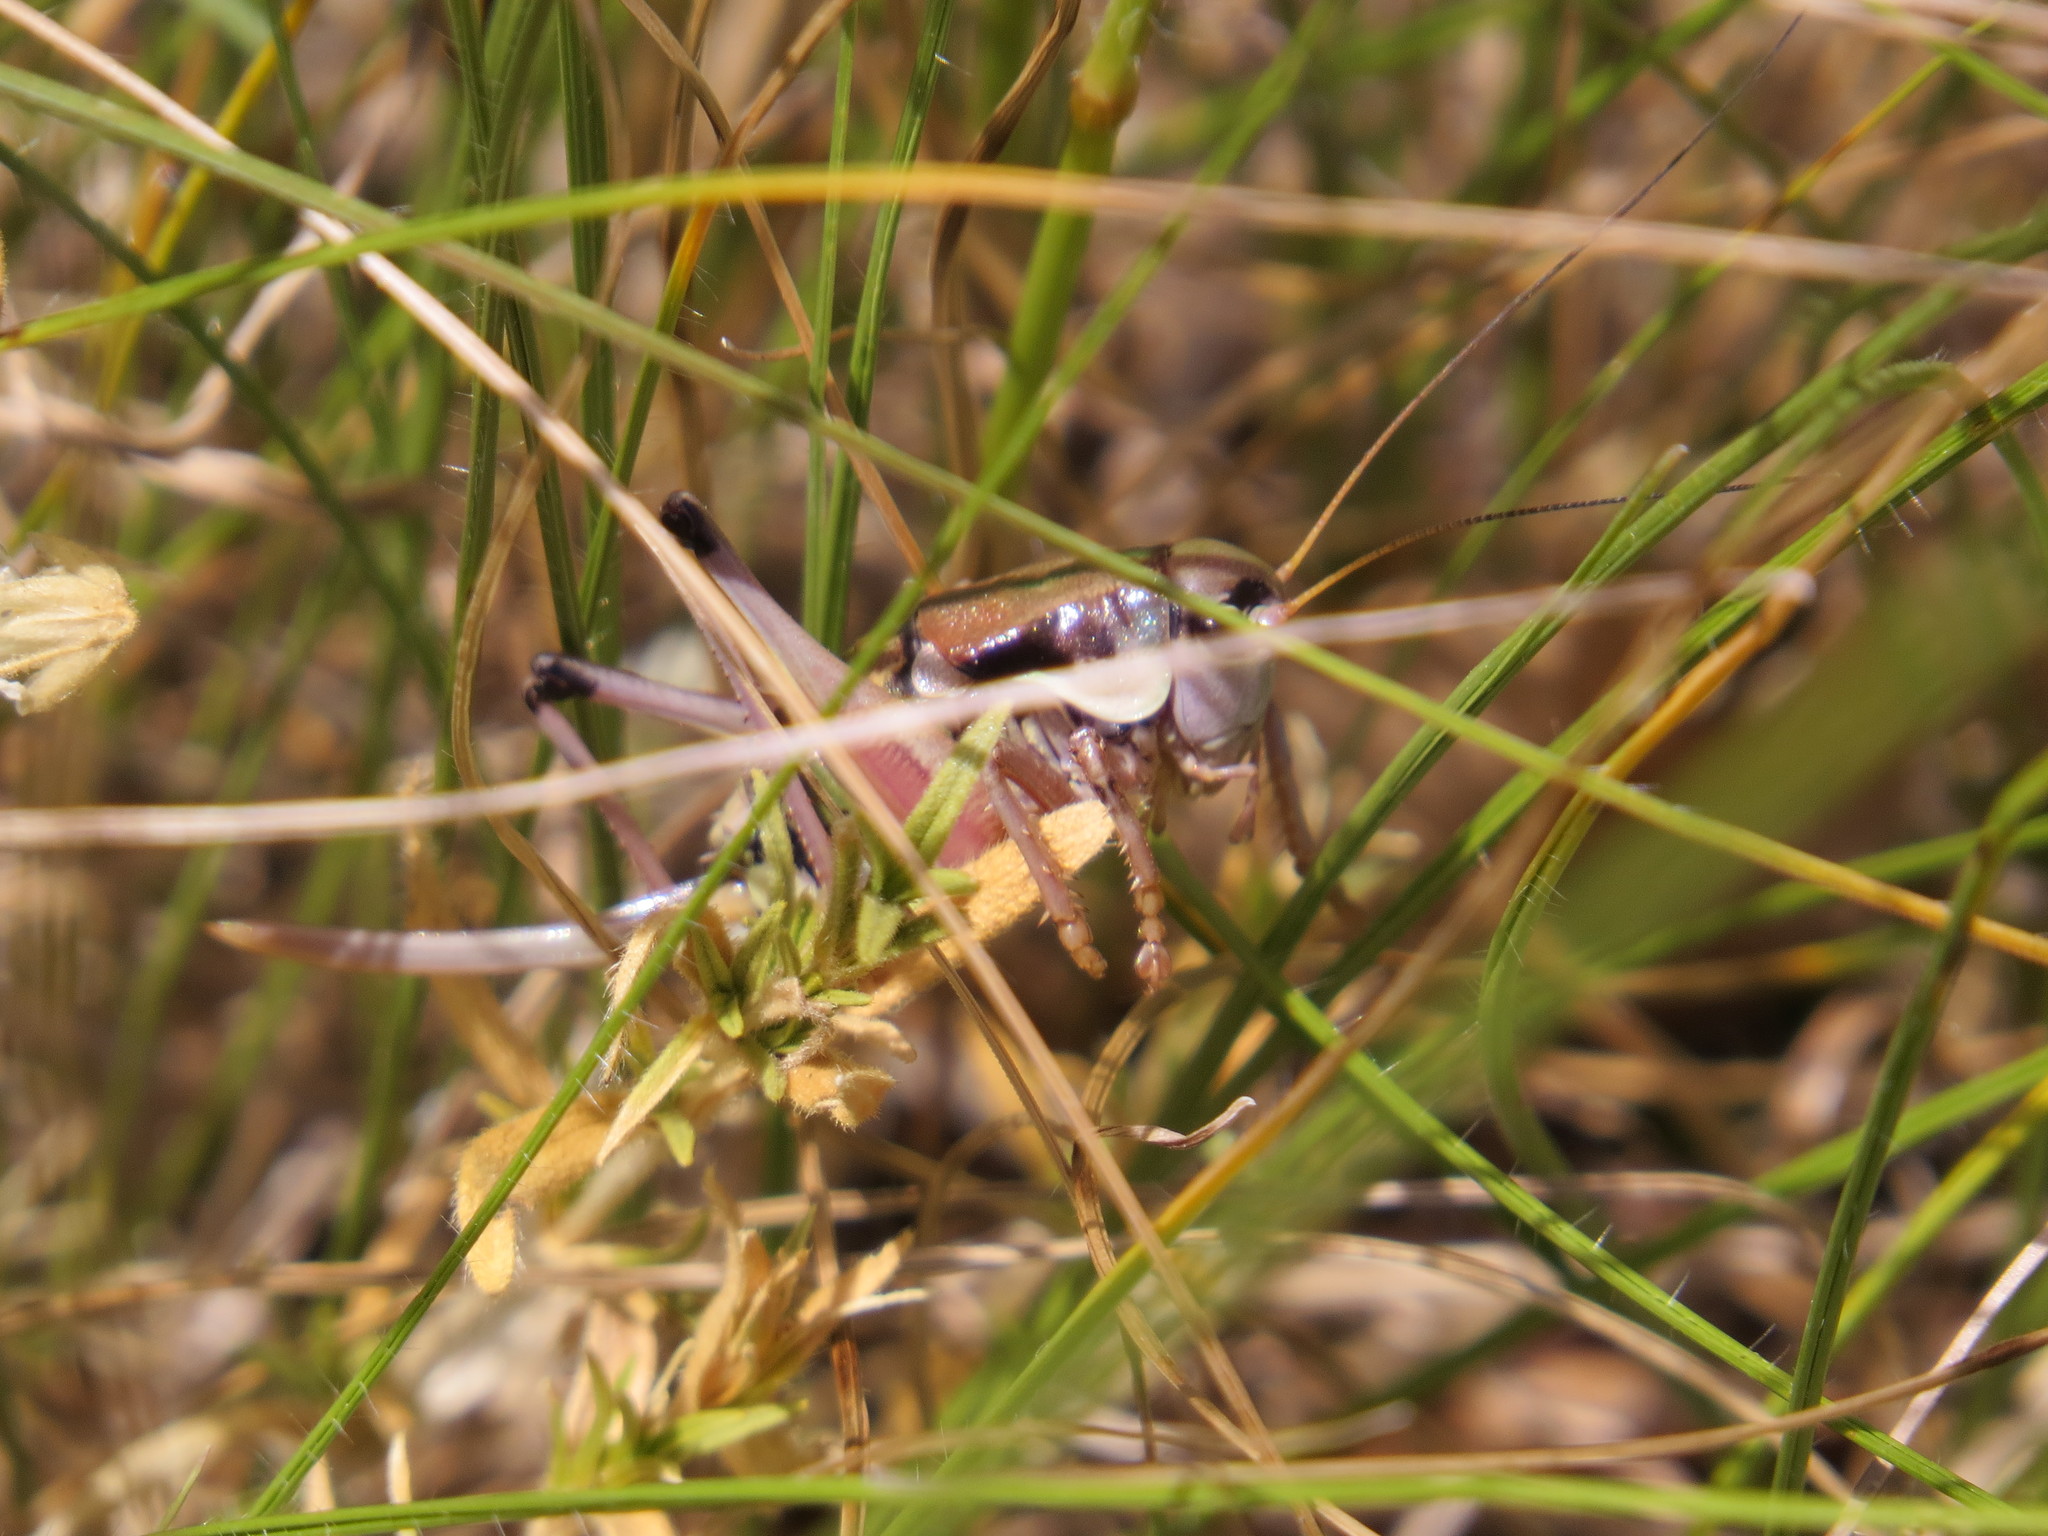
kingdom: Animalia
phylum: Arthropoda
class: Insecta
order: Orthoptera
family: Tettigoniidae
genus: Anonconotus
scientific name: Anonconotus ghilianii
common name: Ghiliani's alpine bush-cricket
